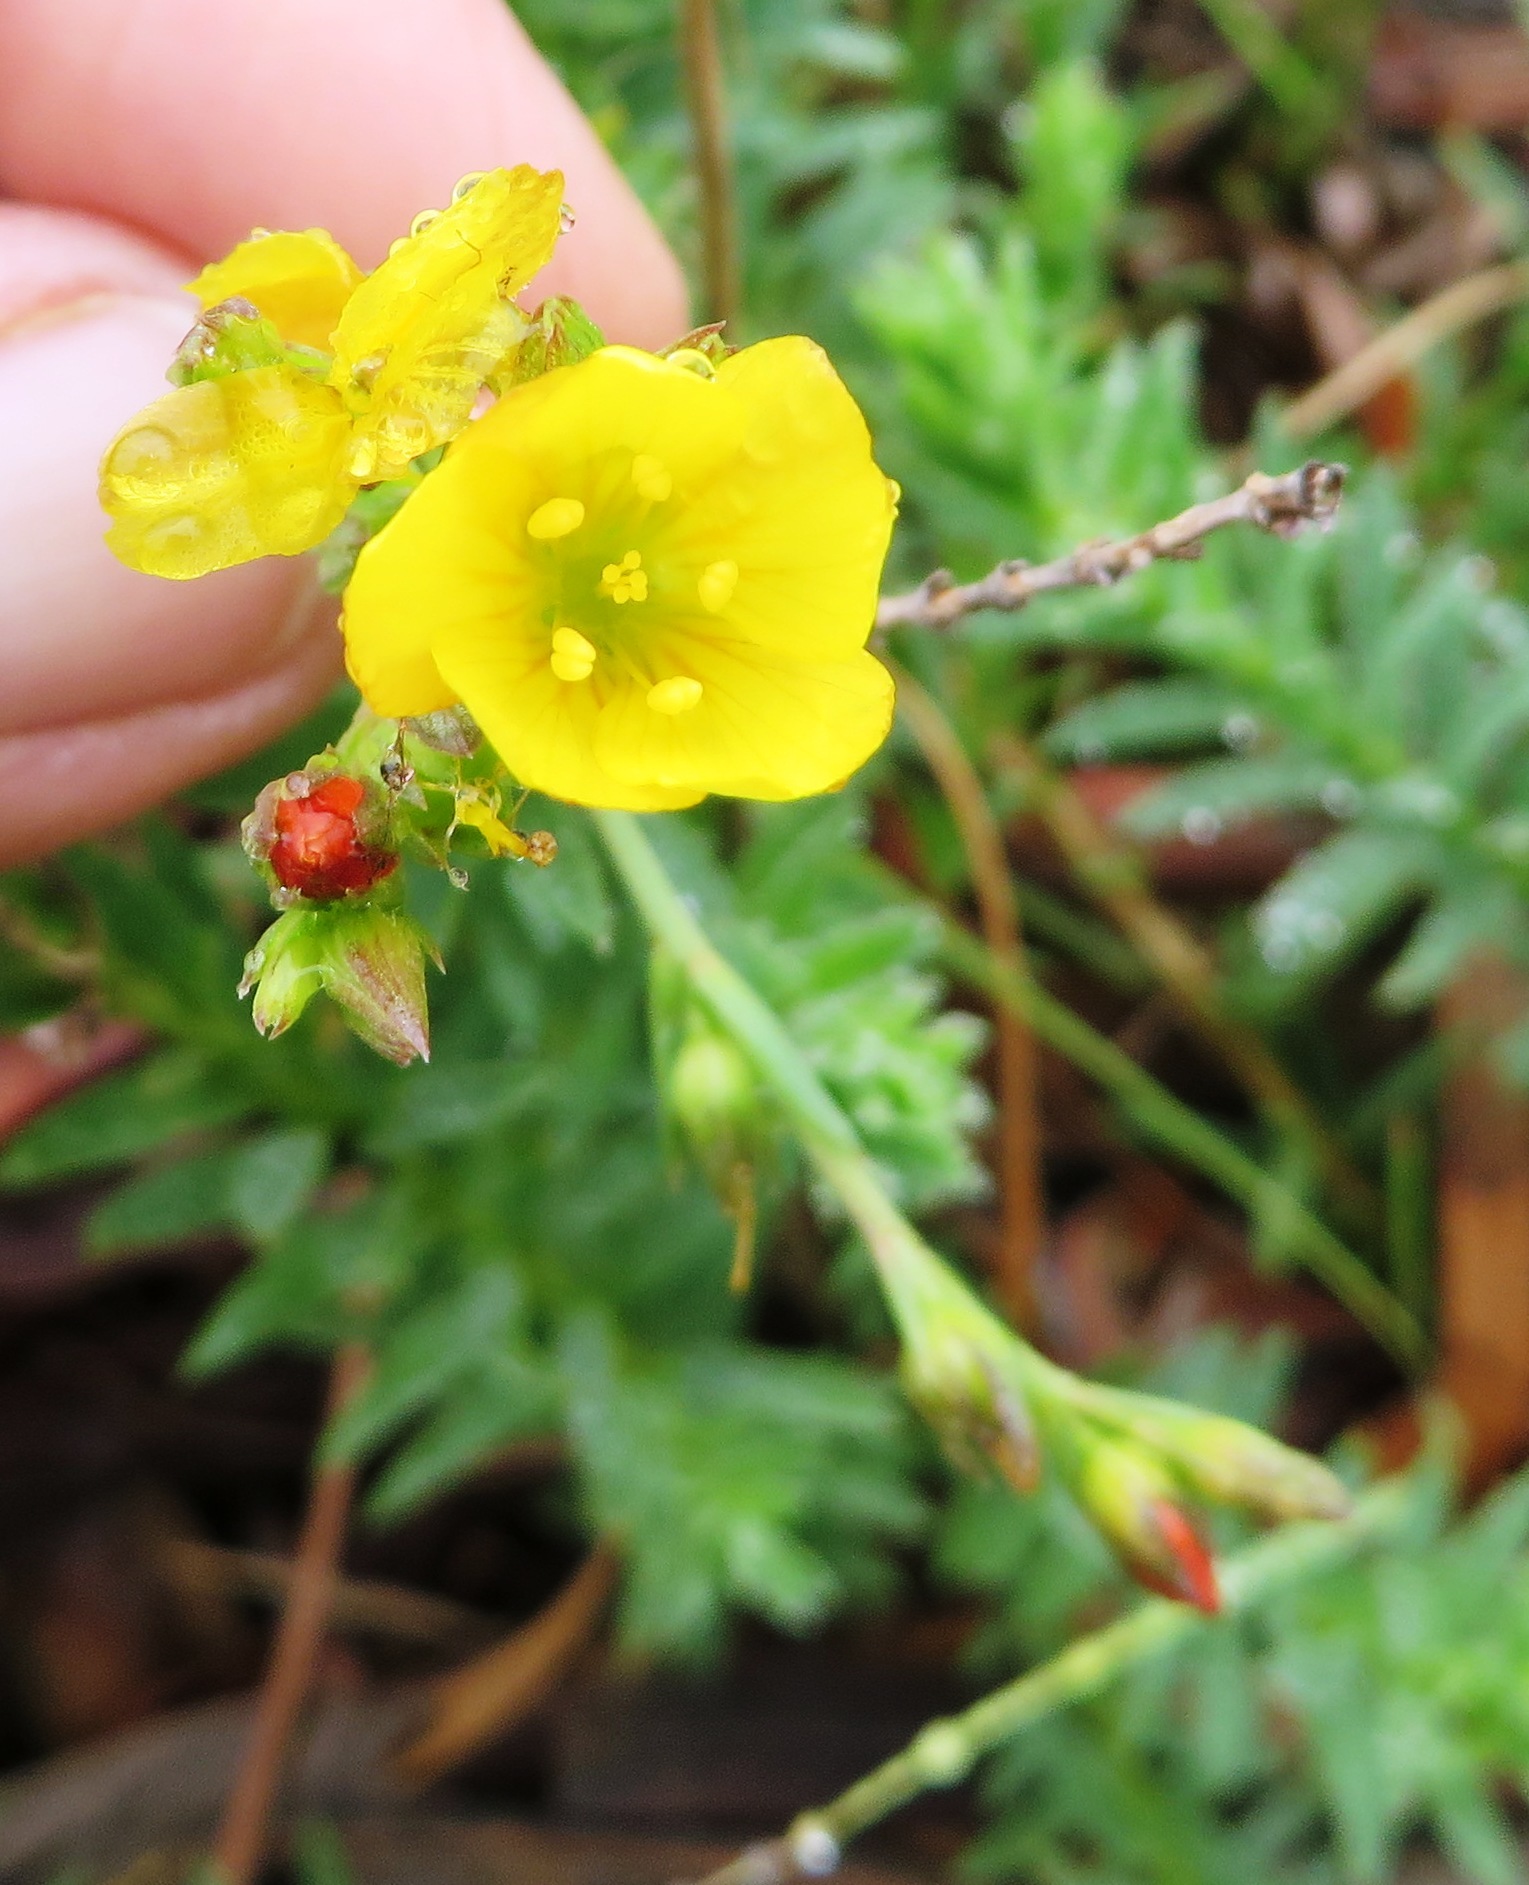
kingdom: Plantae
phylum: Tracheophyta
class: Magnoliopsida
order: Malpighiales
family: Linaceae
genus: Linum
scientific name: Linum acuticarpum
